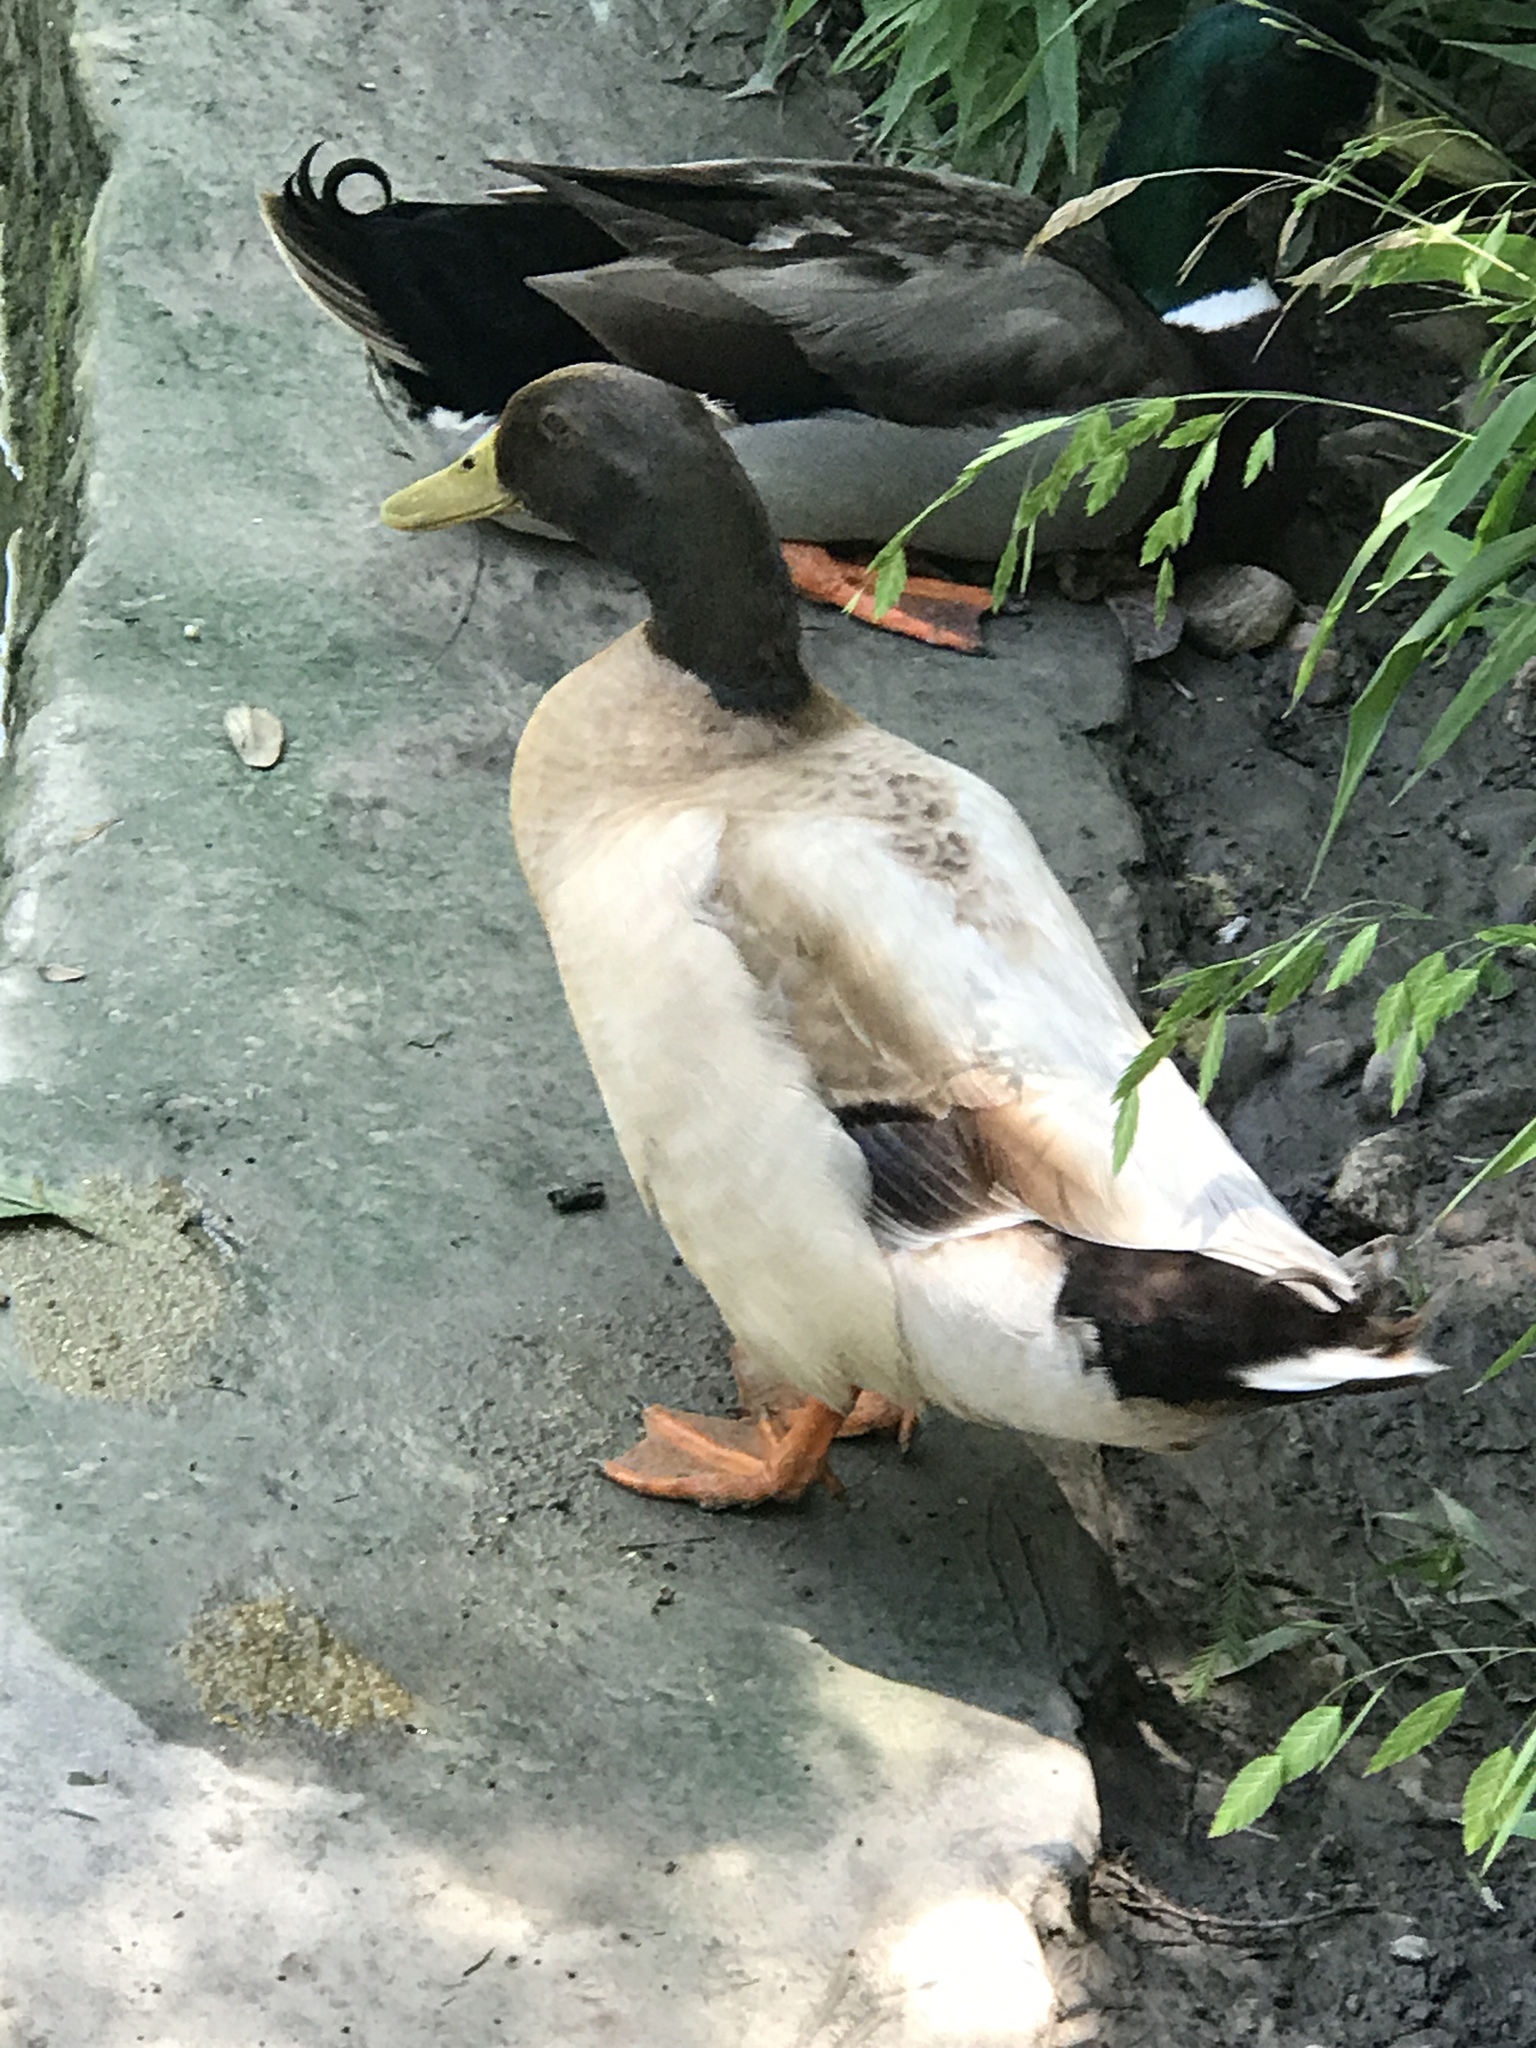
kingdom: Animalia
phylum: Chordata
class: Aves
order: Anseriformes
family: Anatidae
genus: Anas
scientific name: Anas platyrhynchos
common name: Mallard
